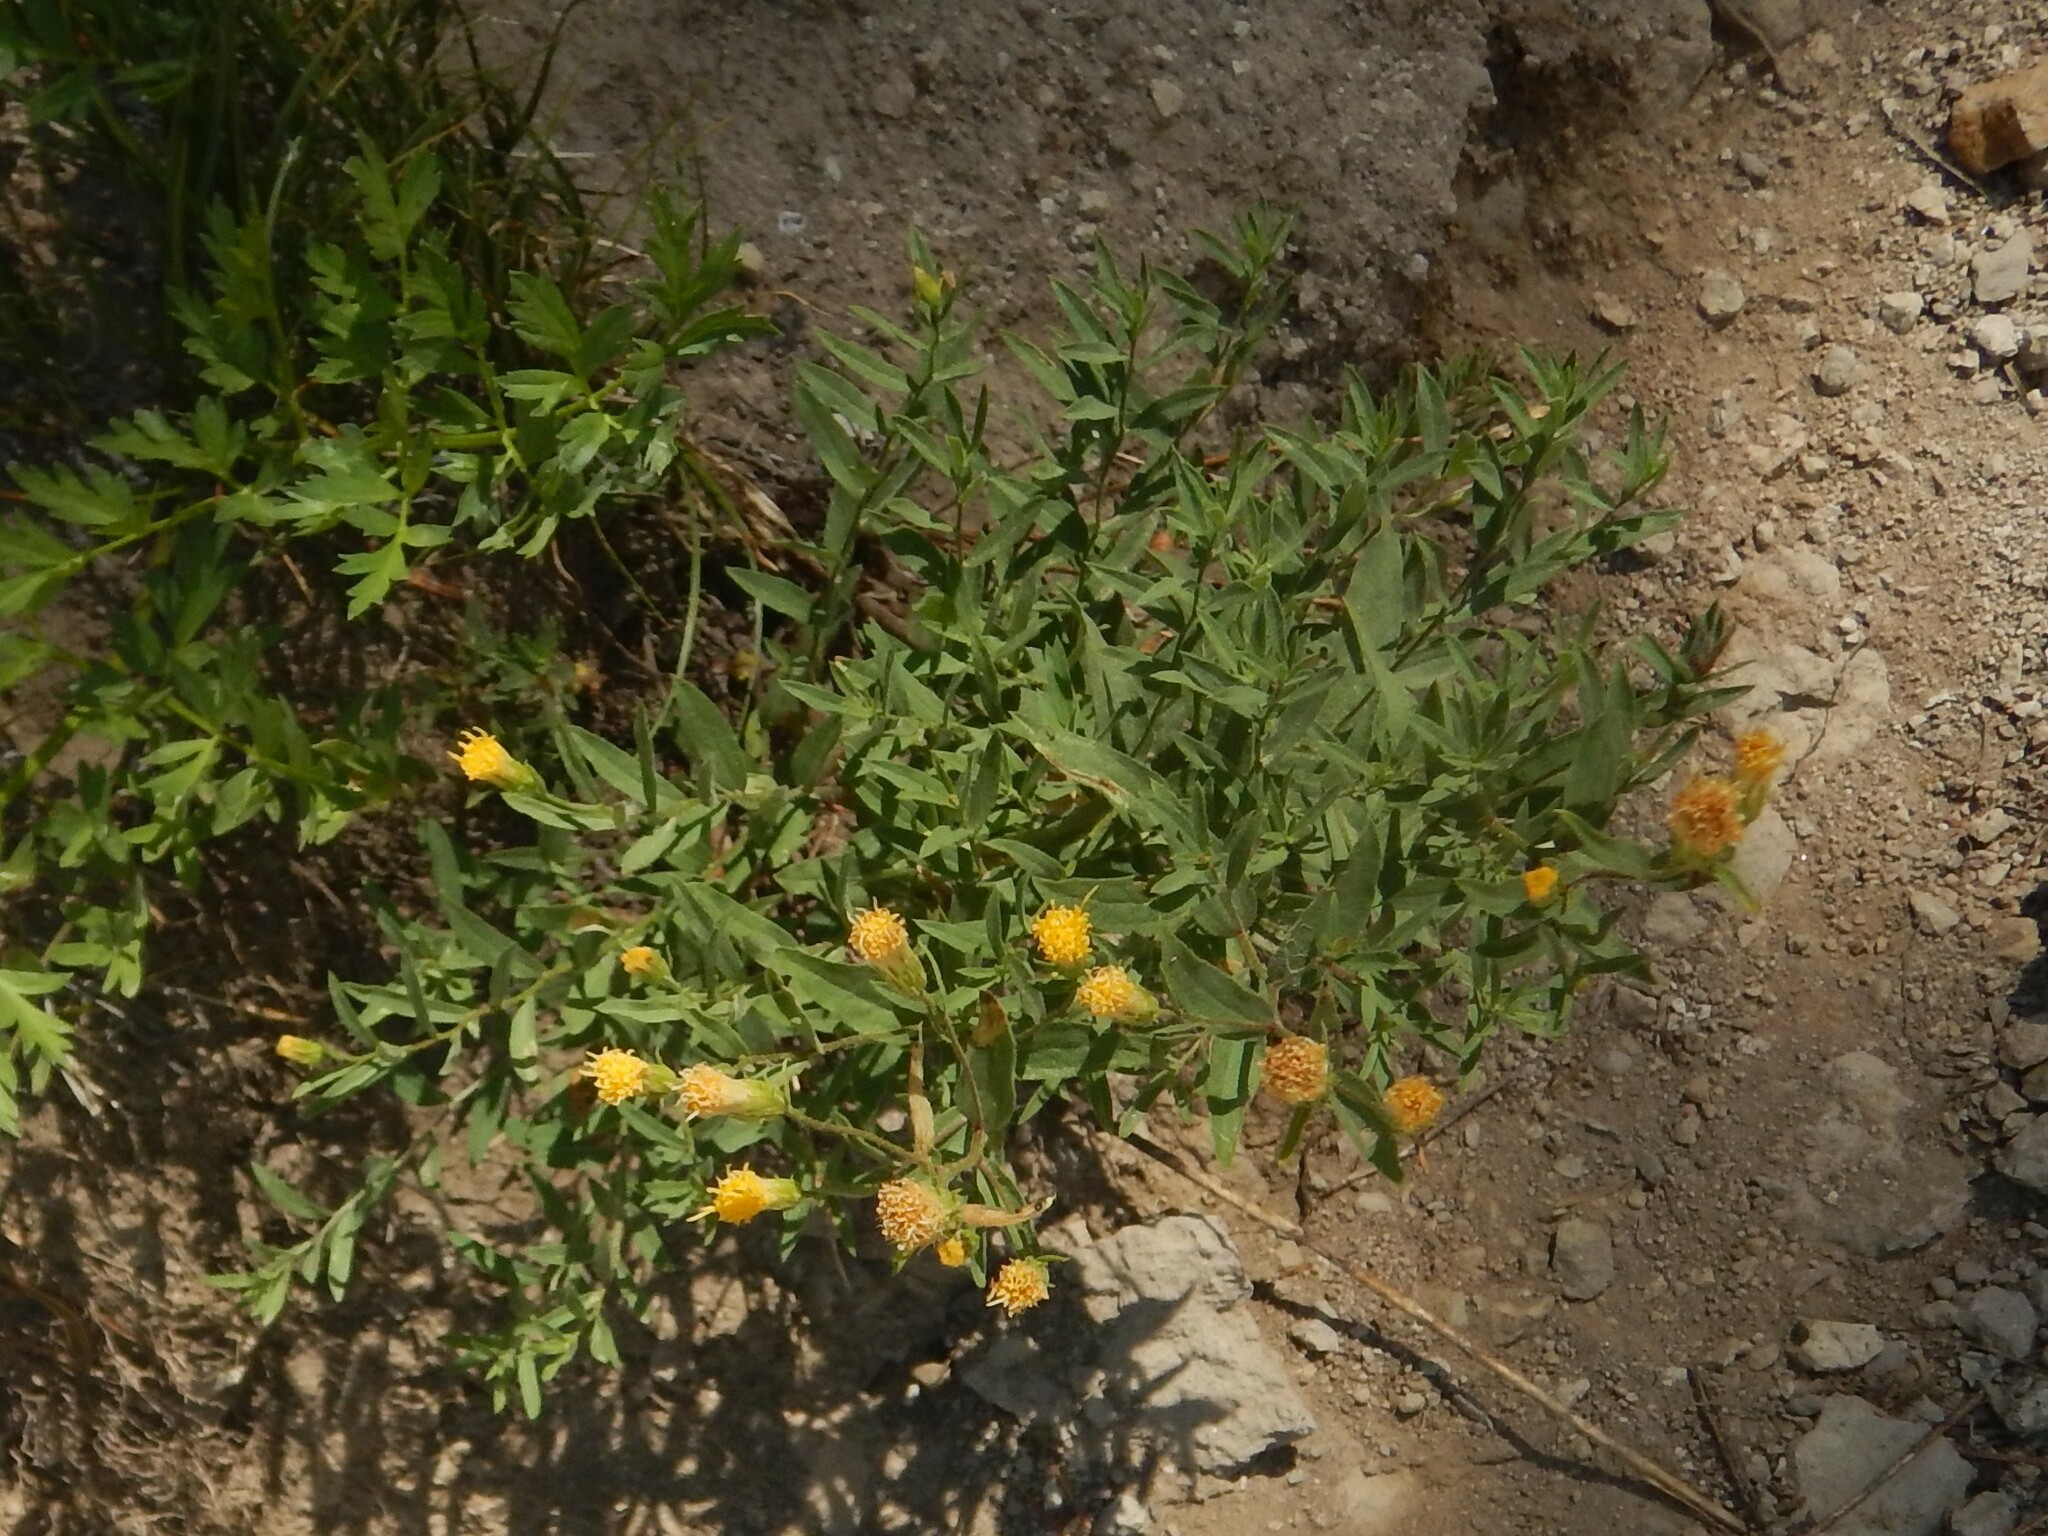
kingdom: Plantae
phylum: Tracheophyta
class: Magnoliopsida
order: Asterales
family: Asteraceae
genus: Eucephalus
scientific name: Eucephalus breweri
